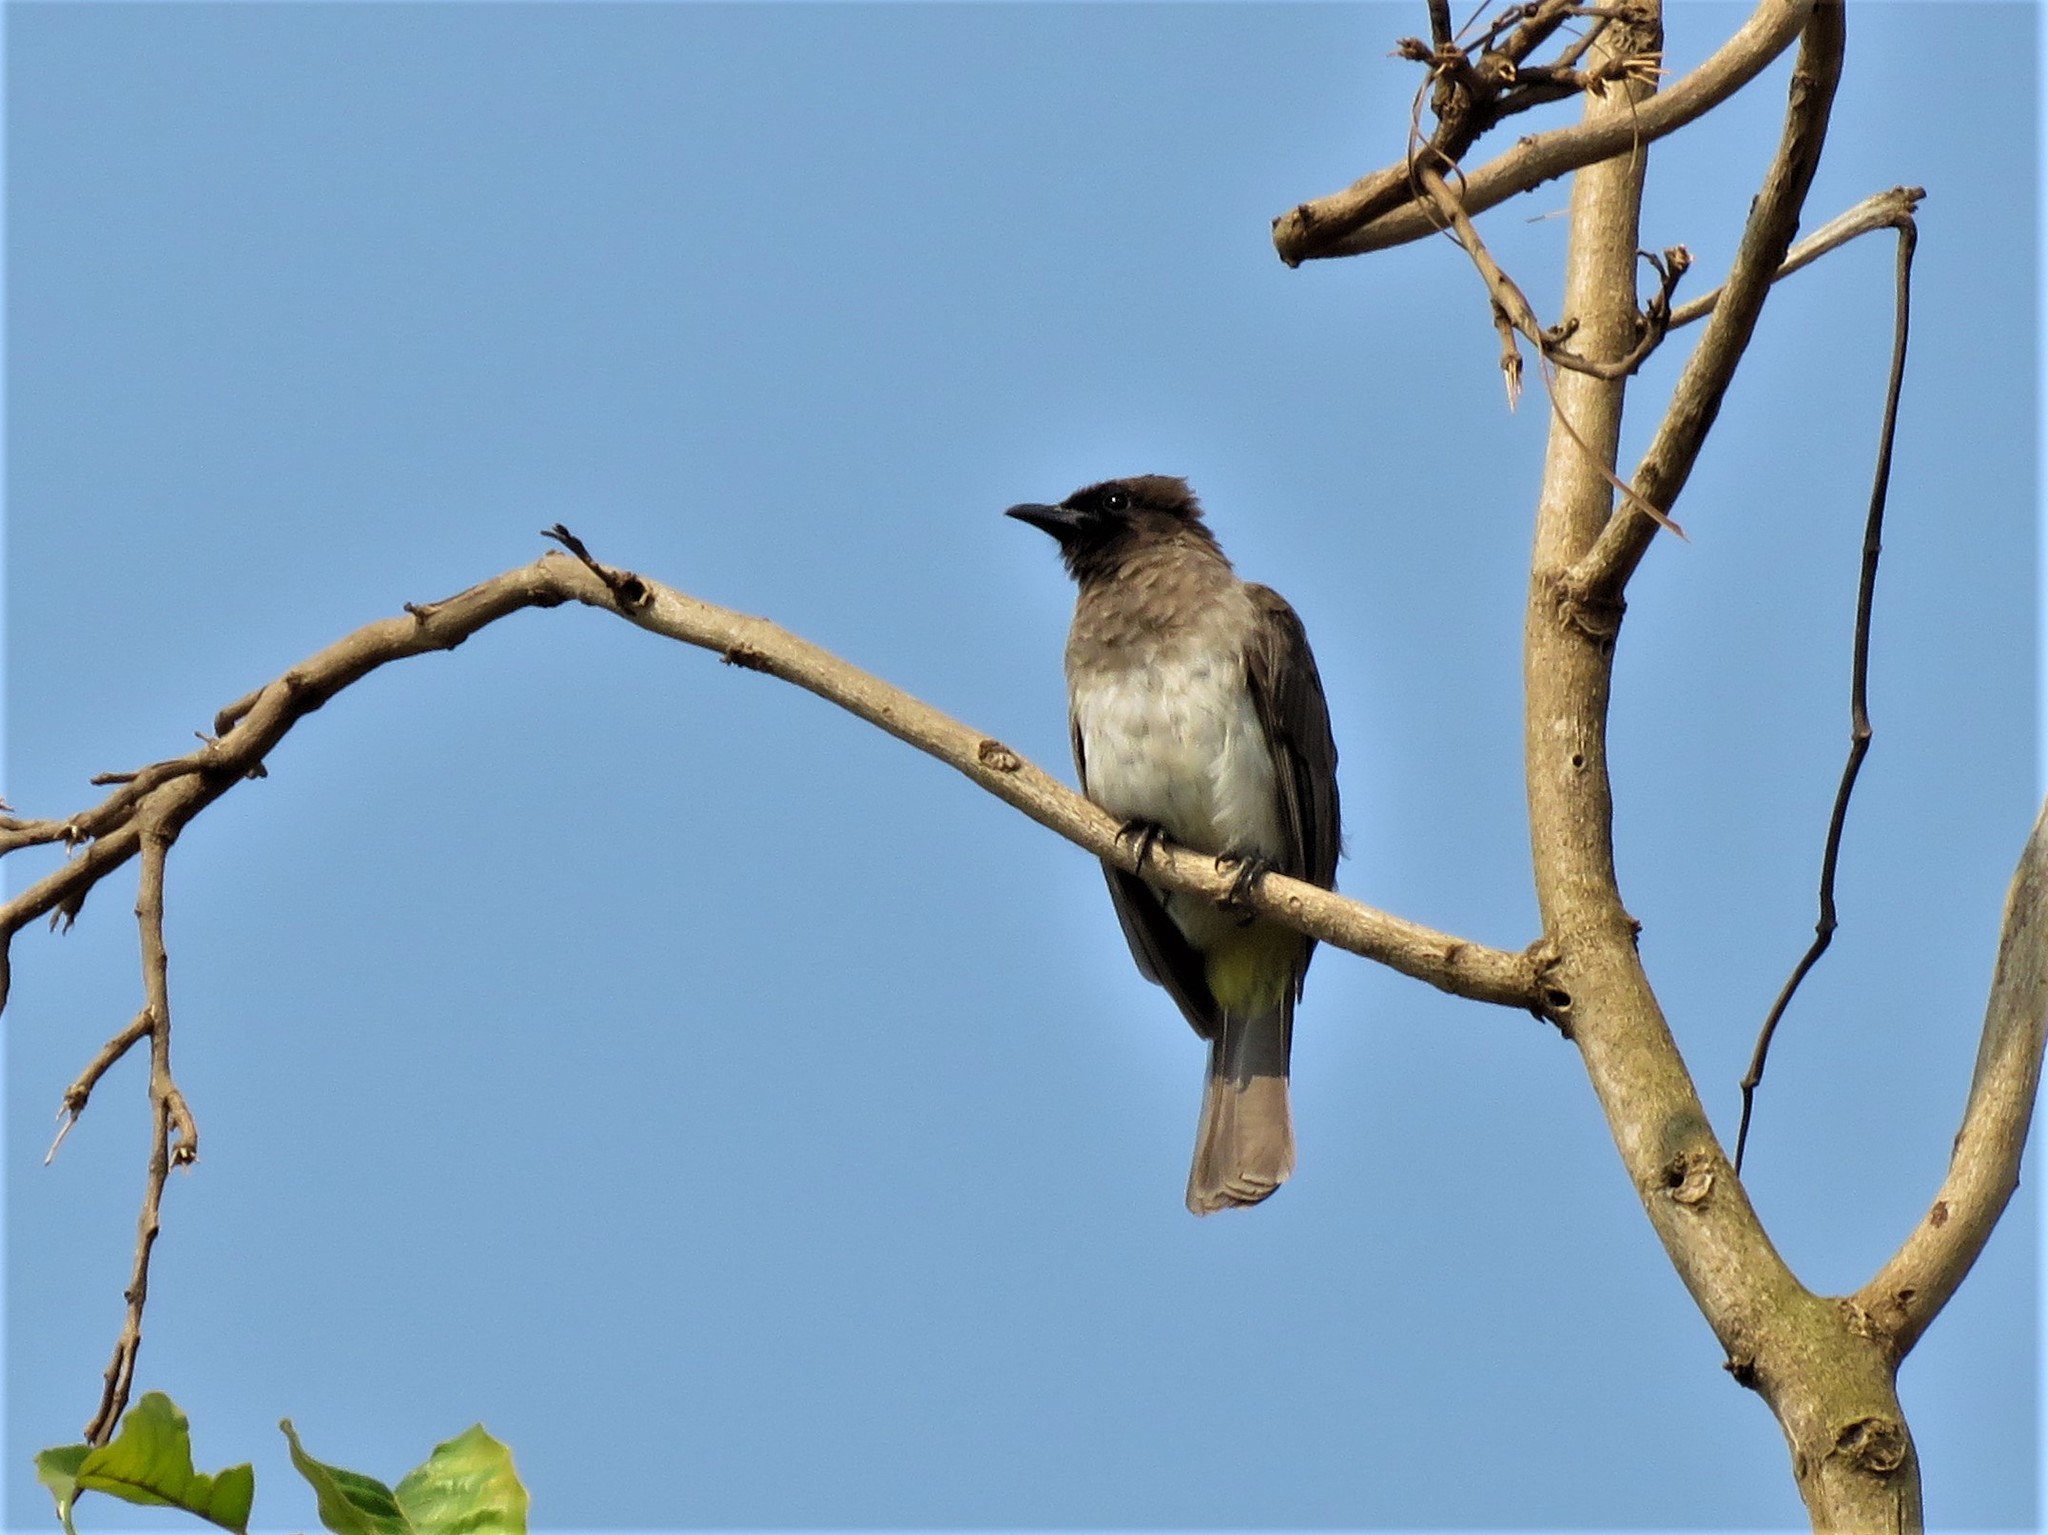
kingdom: Animalia
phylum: Chordata
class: Aves
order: Passeriformes
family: Pycnonotidae
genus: Pycnonotus
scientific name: Pycnonotus barbatus
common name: Common bulbul
